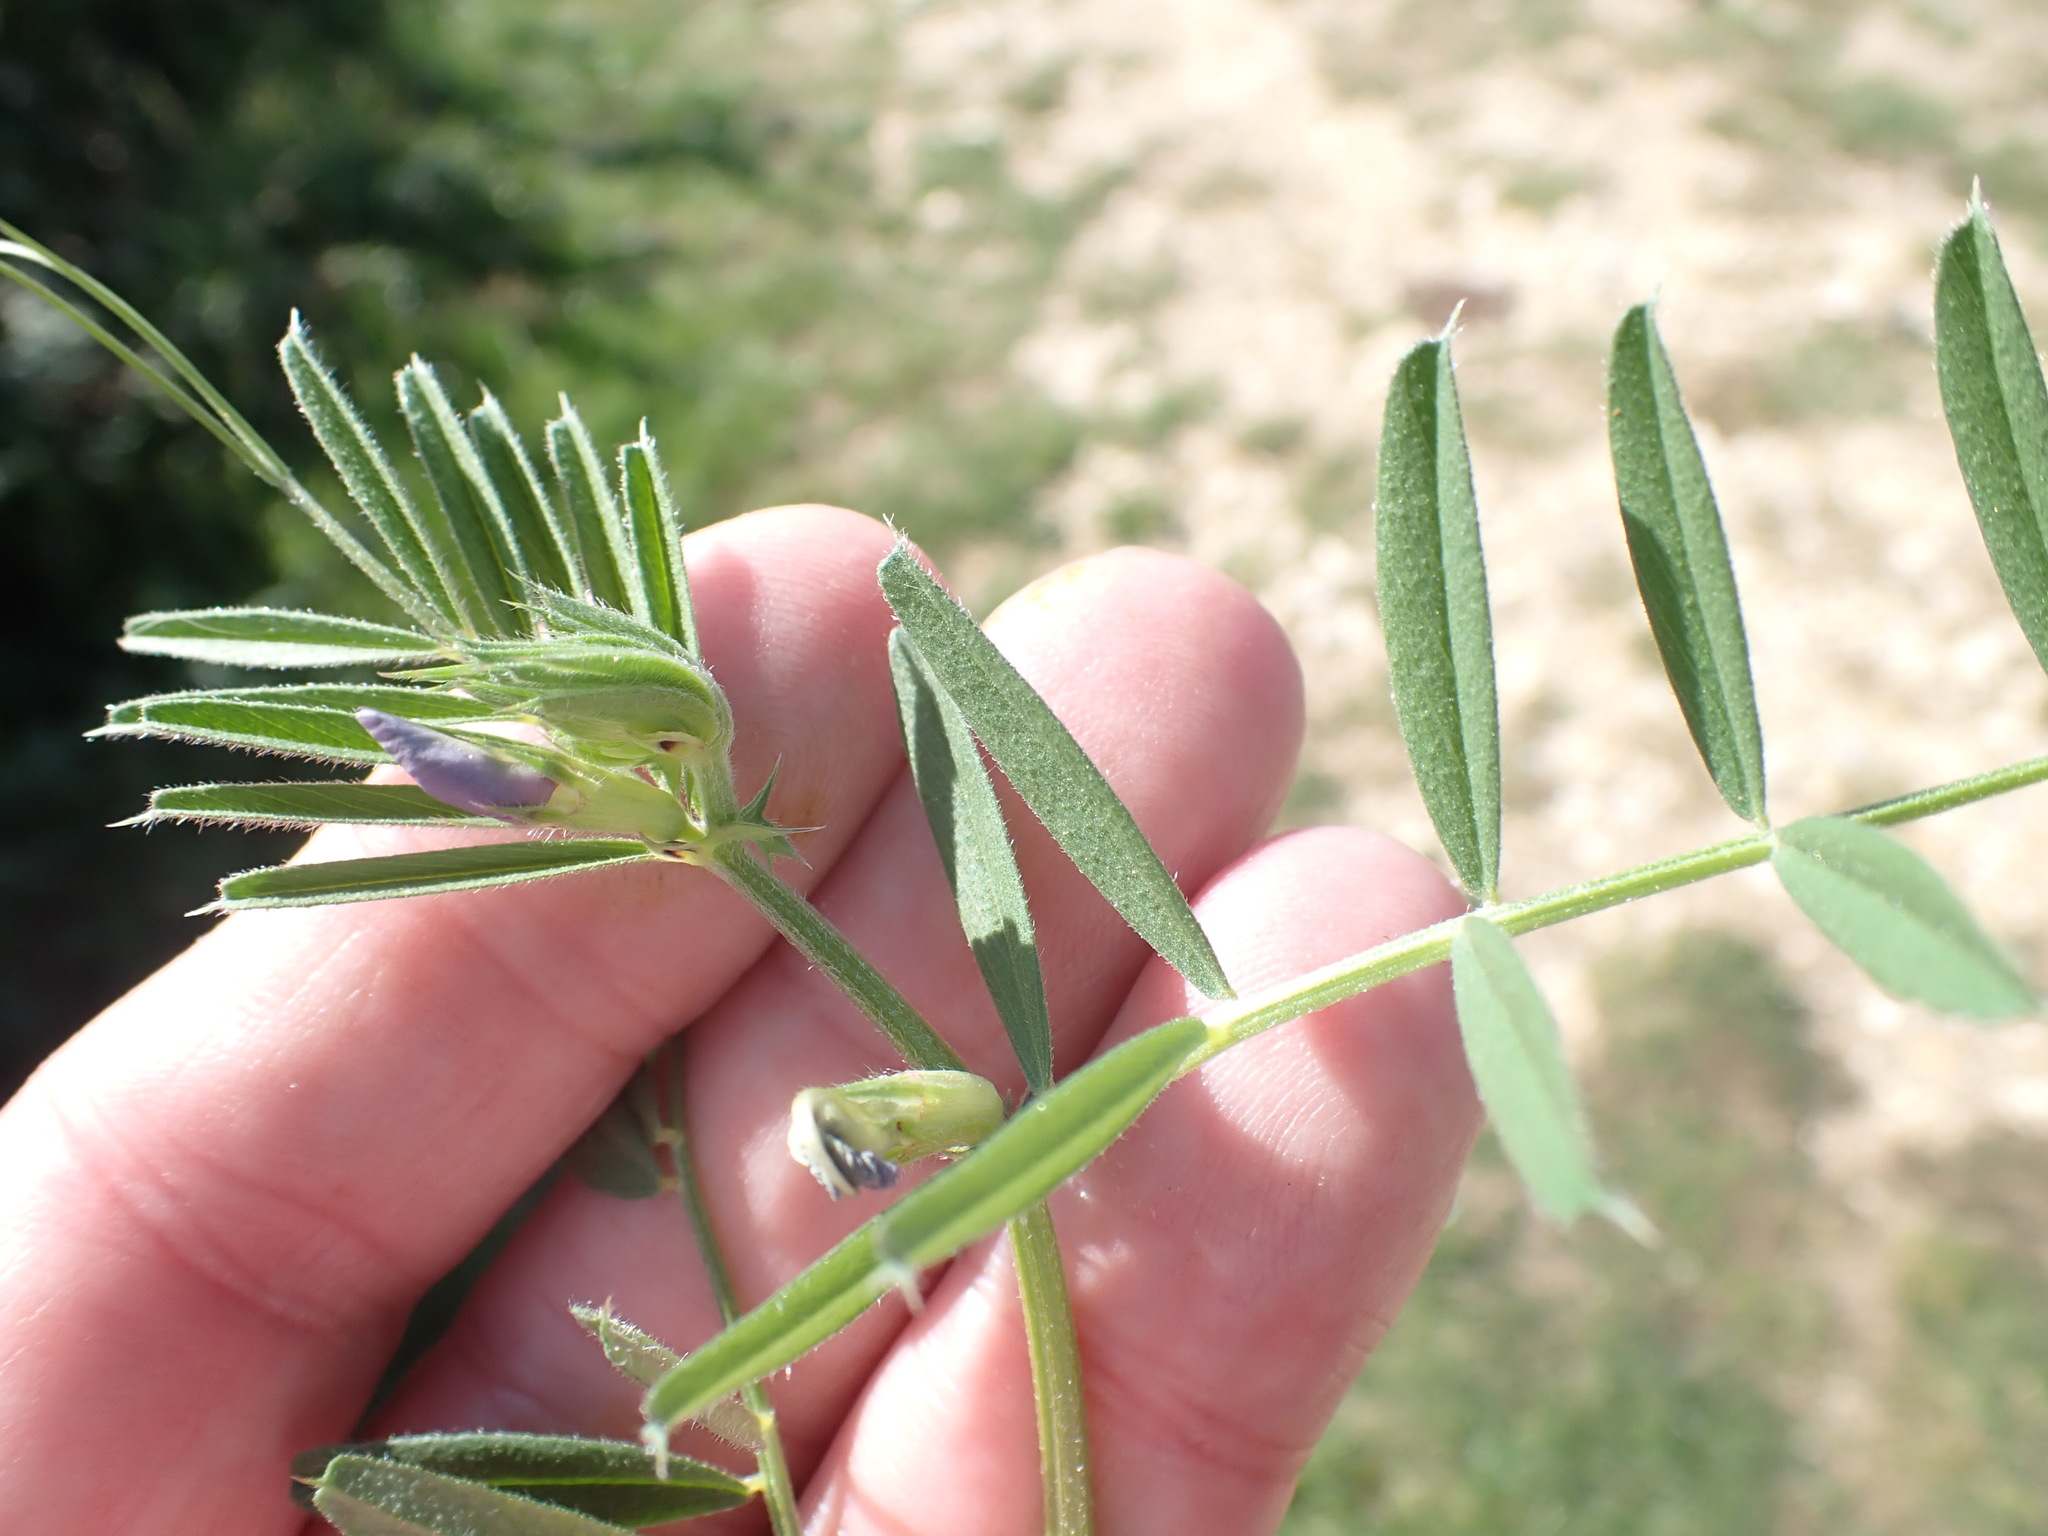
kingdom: Plantae
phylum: Tracheophyta
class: Magnoliopsida
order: Fabales
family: Fabaceae
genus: Vicia
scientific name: Vicia sativa
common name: Garden vetch
